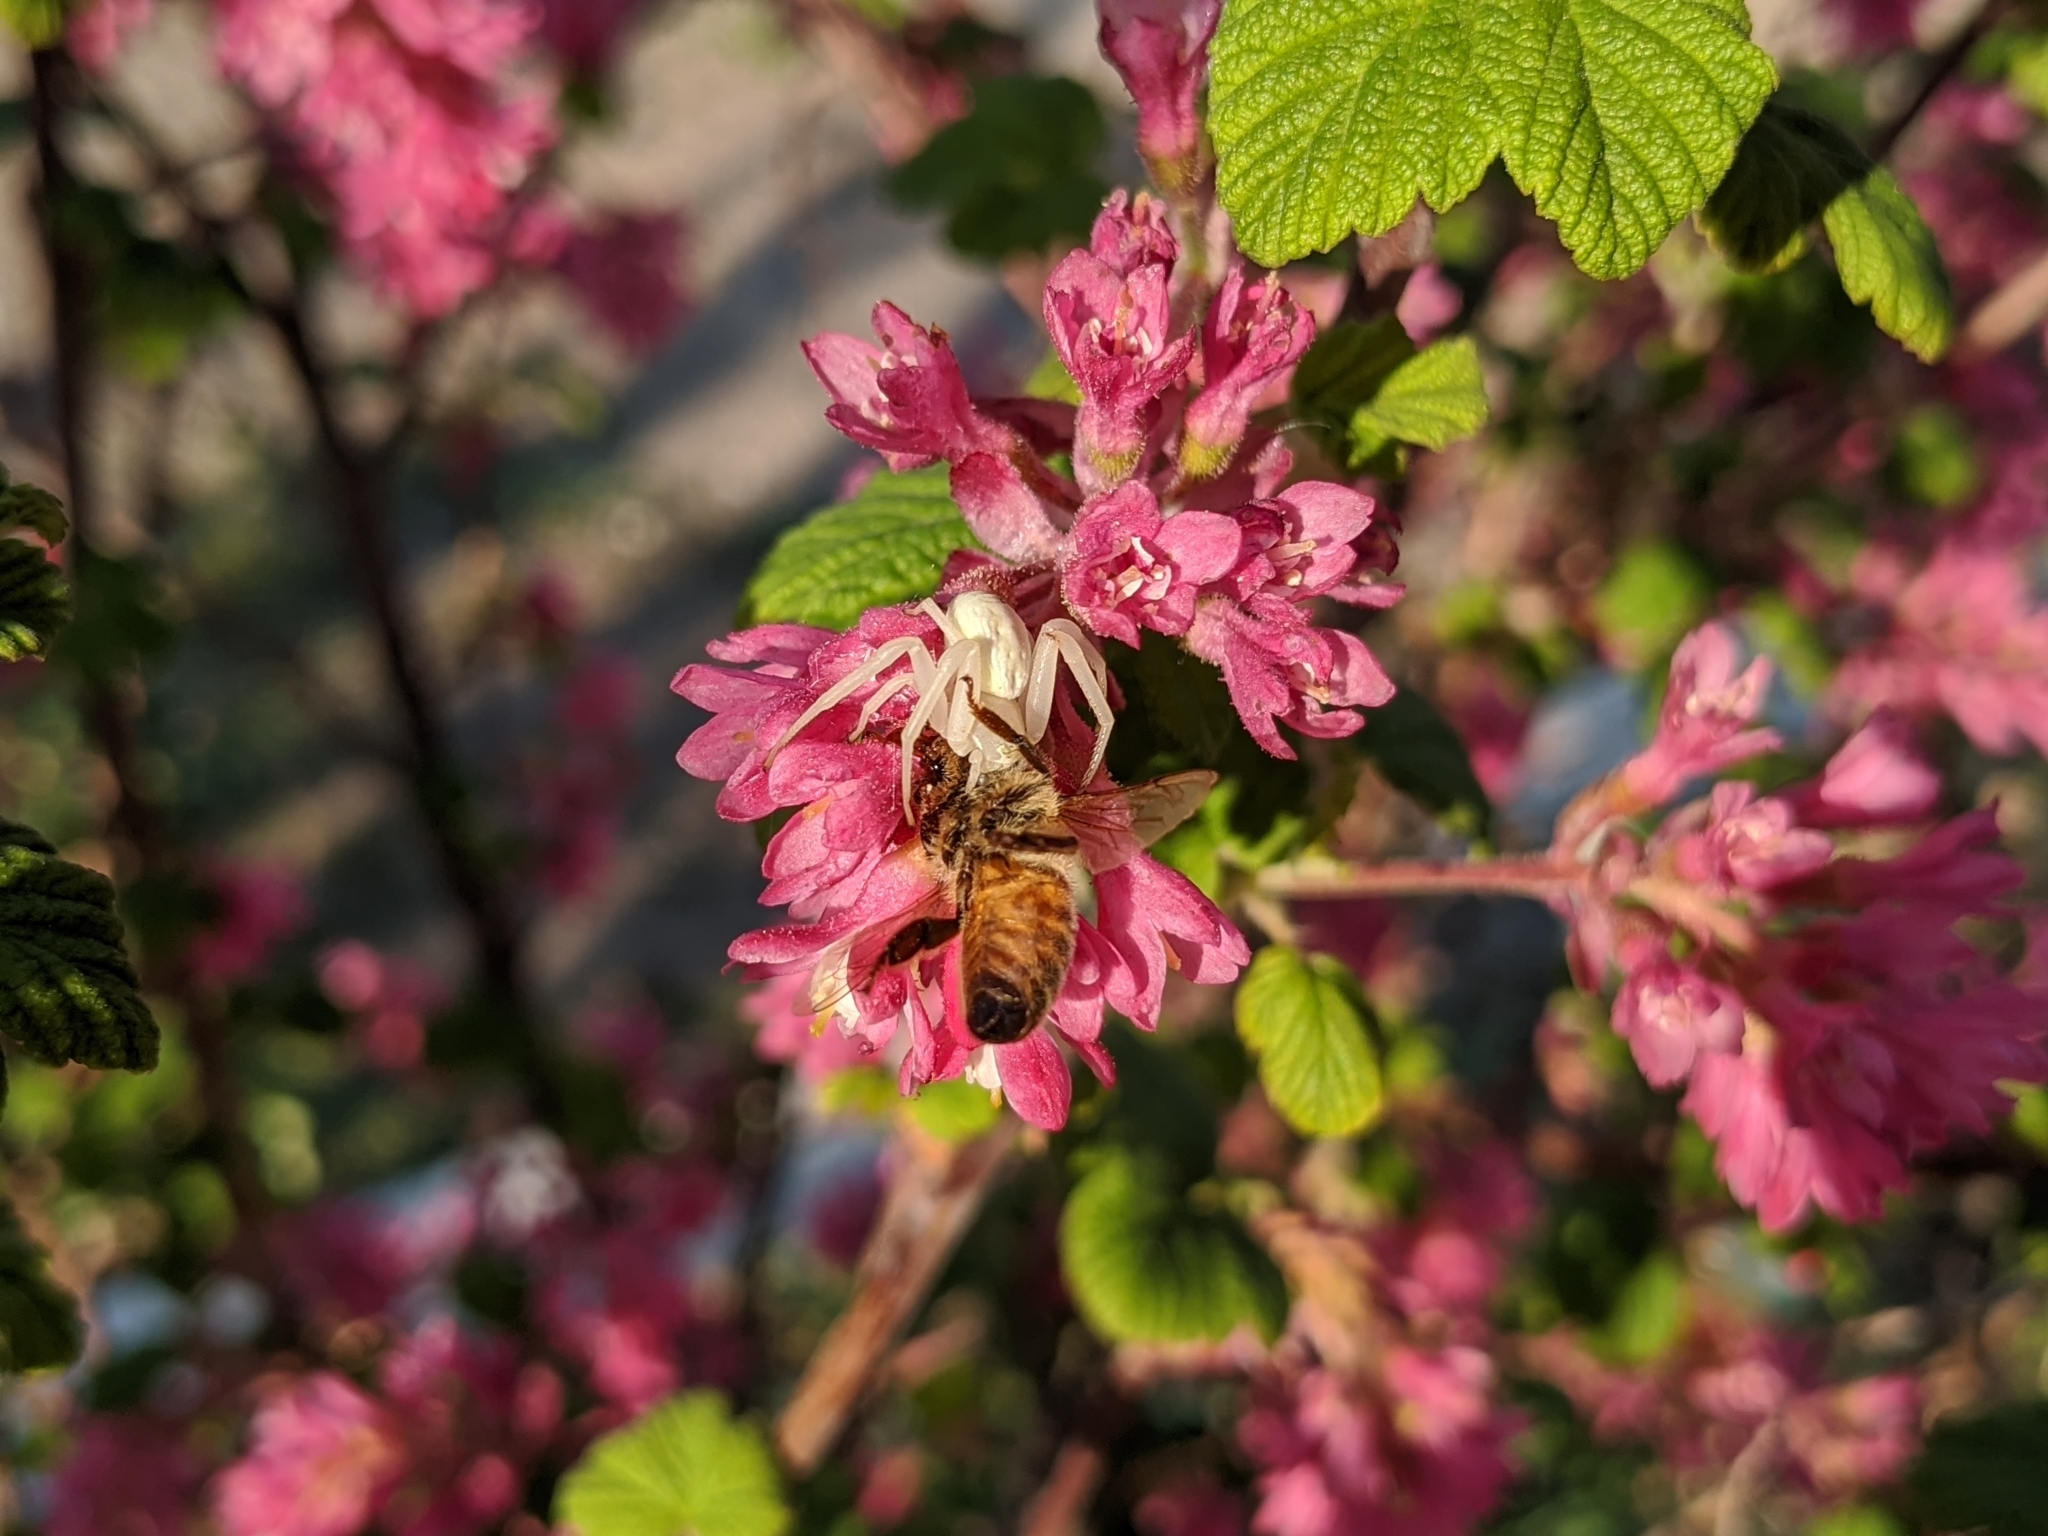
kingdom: Animalia
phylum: Arthropoda
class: Arachnida
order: Araneae
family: Thomisidae
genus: Misumena
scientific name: Misumena vatia
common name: Goldenrod crab spider
